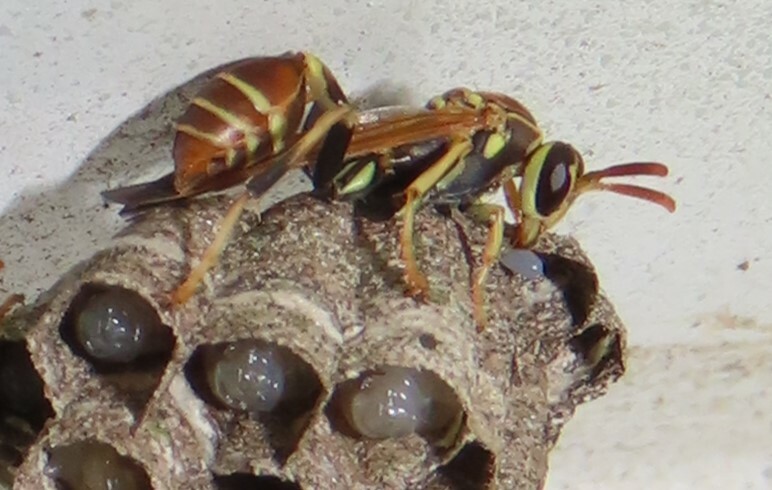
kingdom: Animalia
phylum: Arthropoda
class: Insecta
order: Hymenoptera
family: Vespidae
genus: Mischocyttarus
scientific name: Mischocyttarus mexicanus
